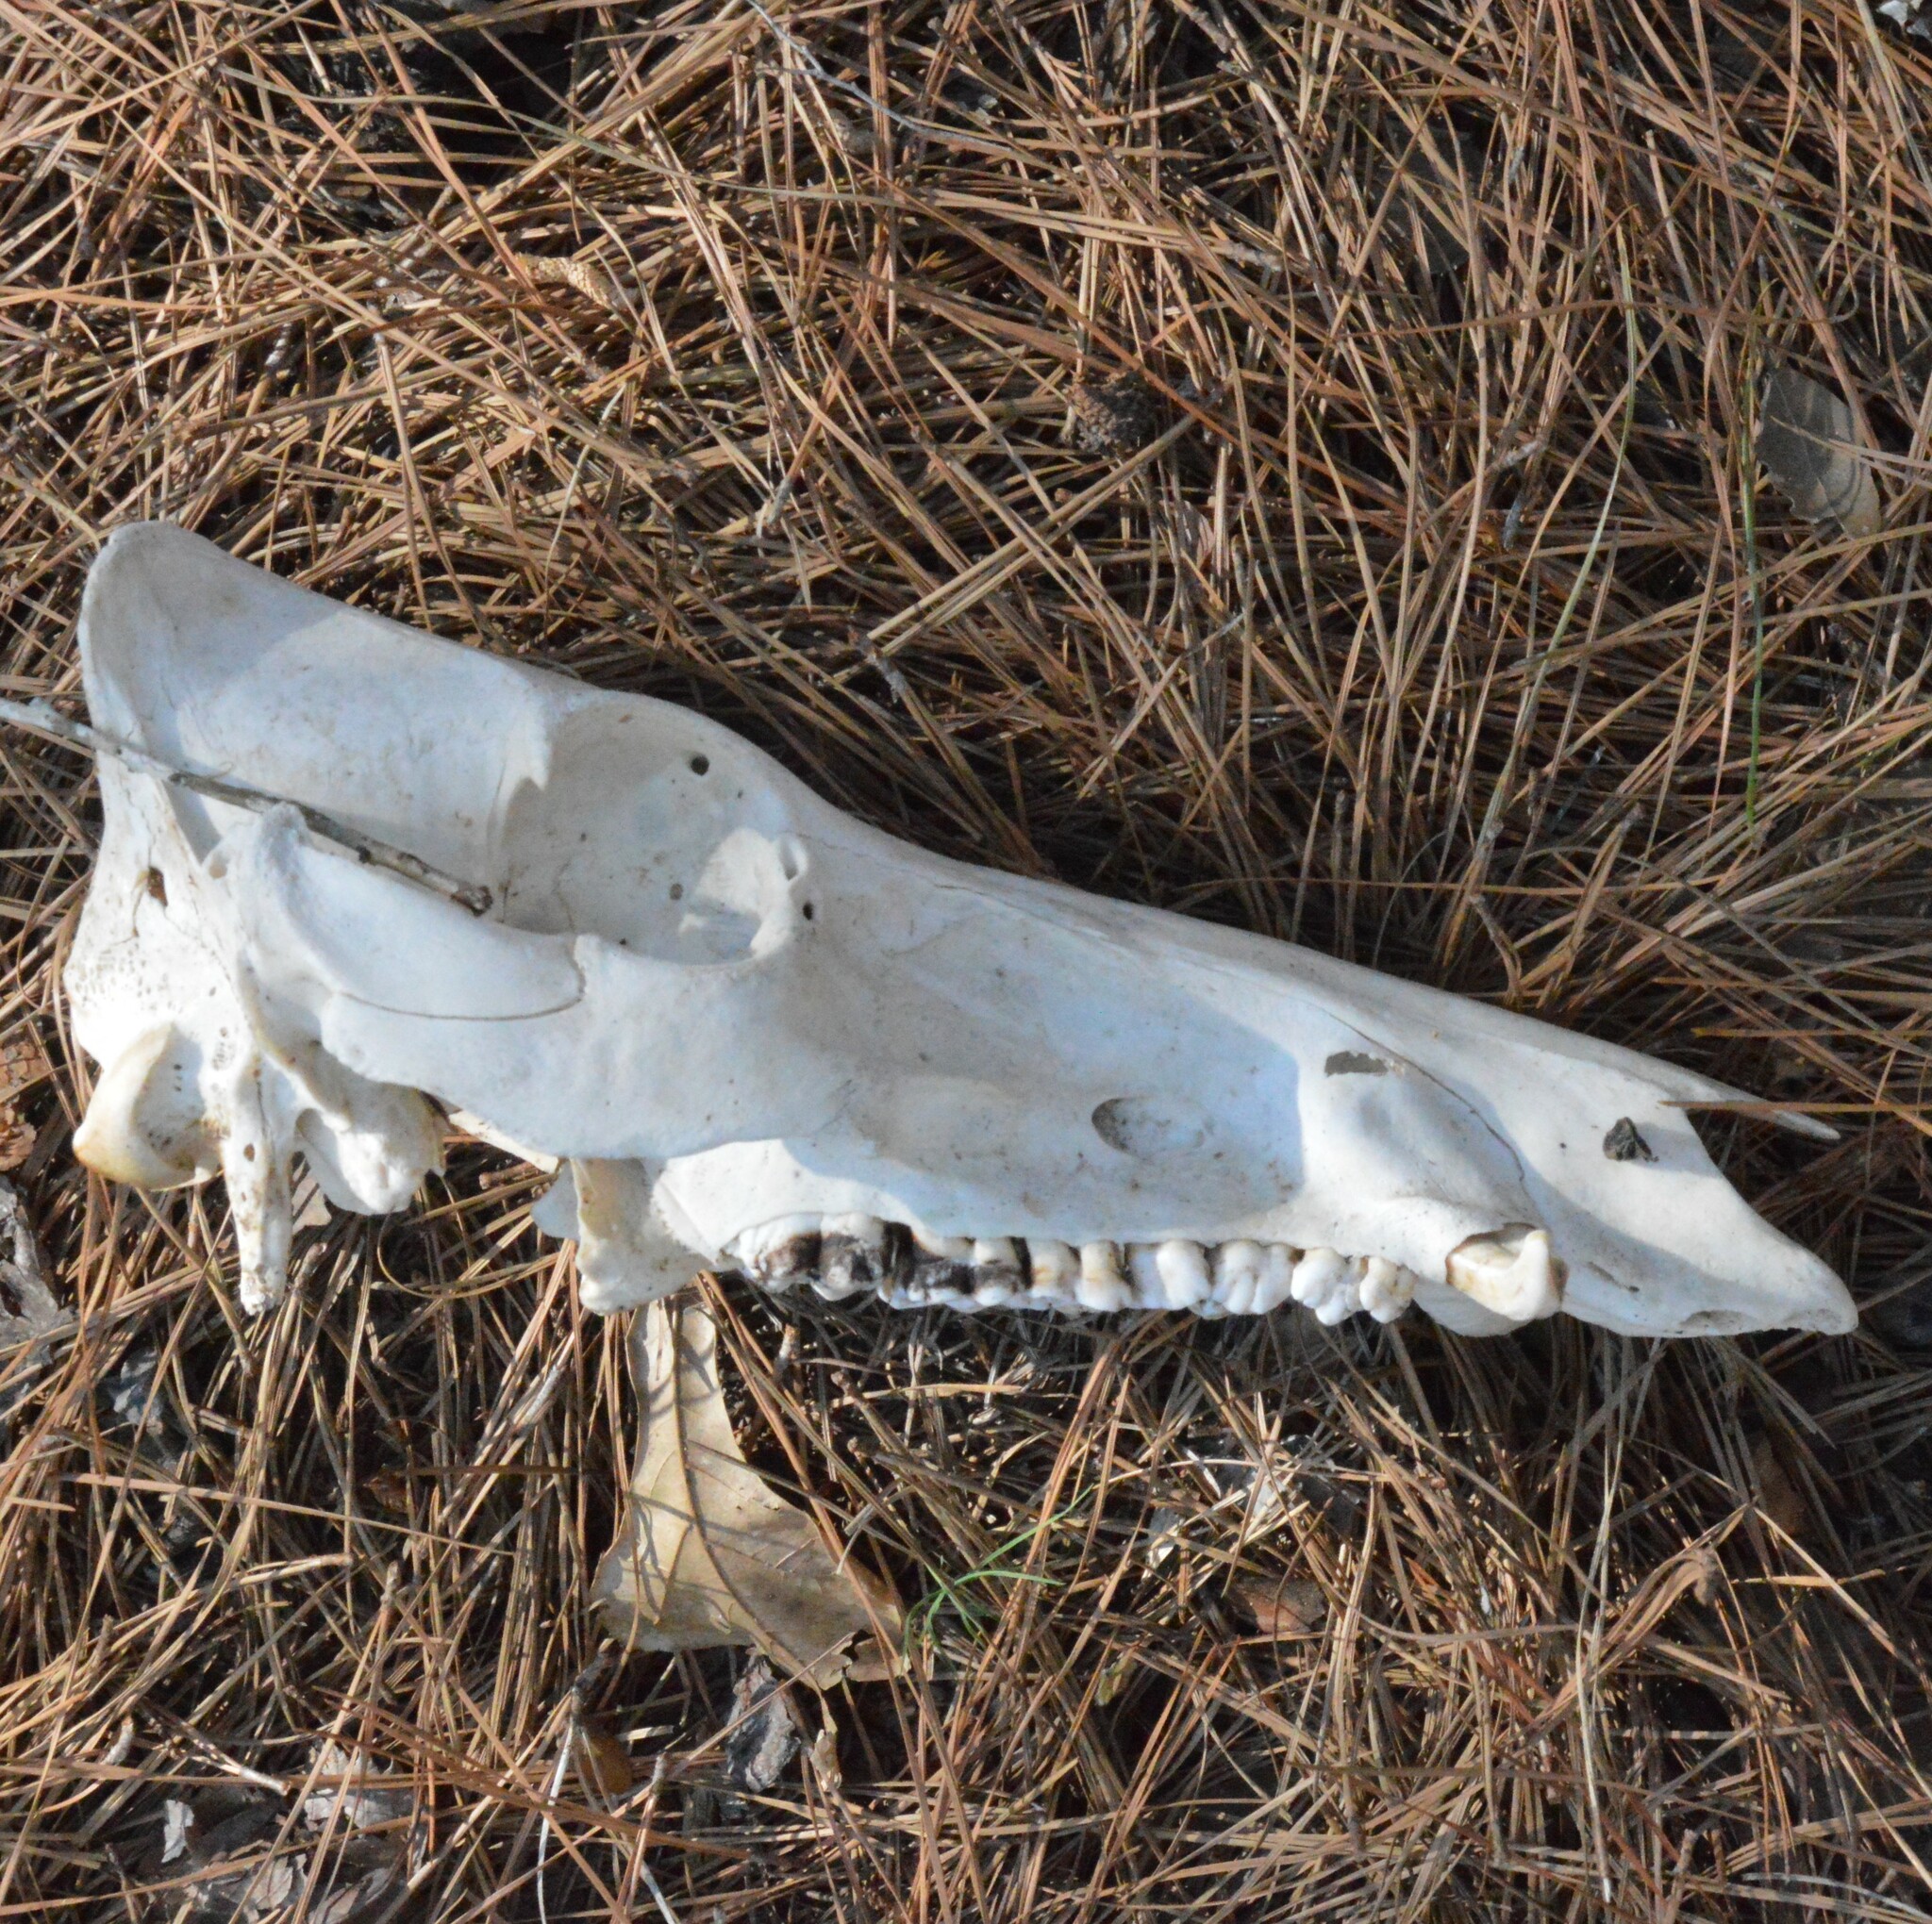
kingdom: Animalia
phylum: Chordata
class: Mammalia
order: Artiodactyla
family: Suidae
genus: Sus
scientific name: Sus scrofa
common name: Wild boar
